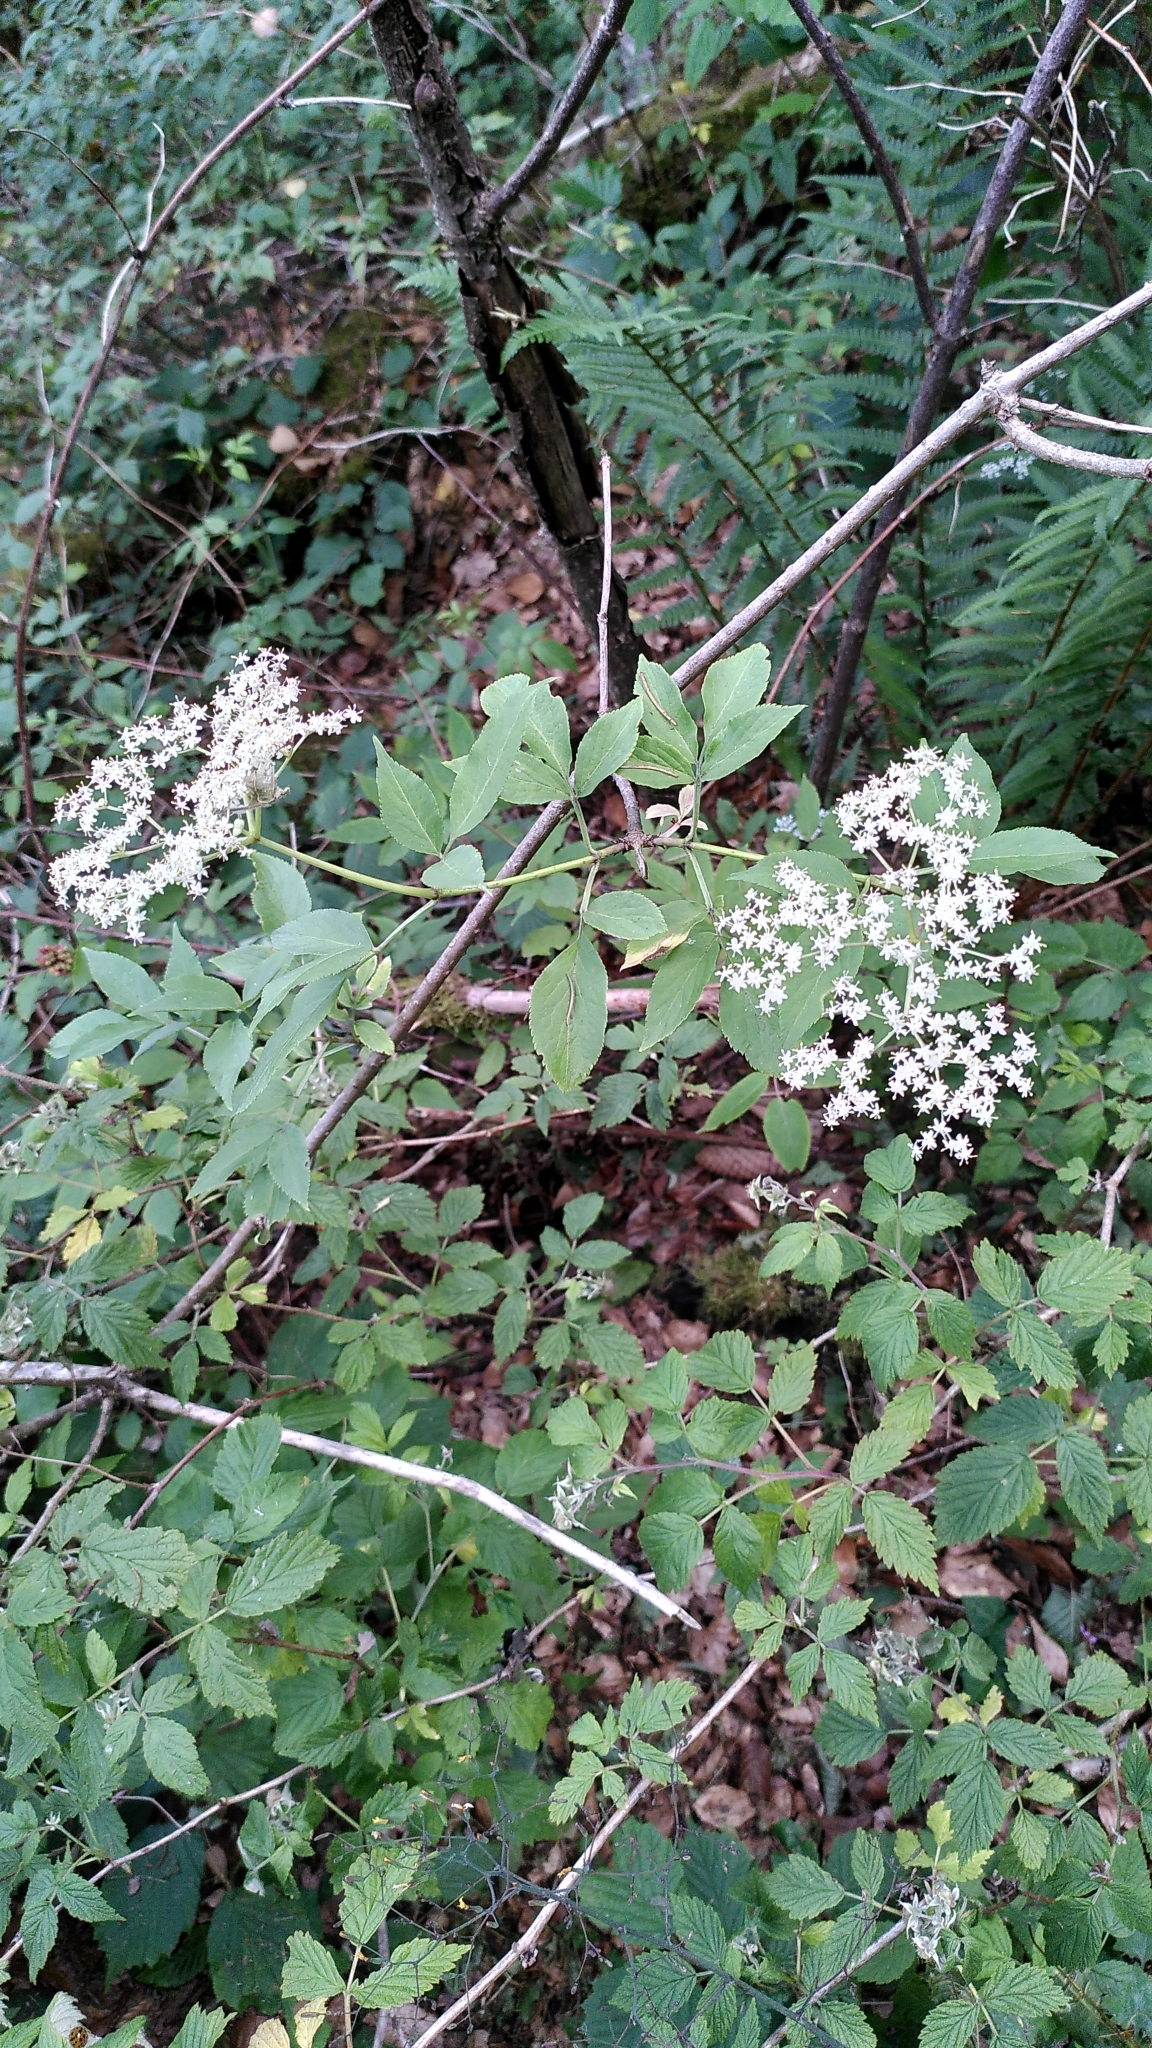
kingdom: Plantae
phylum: Tracheophyta
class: Magnoliopsida
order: Dipsacales
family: Viburnaceae
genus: Sambucus
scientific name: Sambucus nigra
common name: Elder
